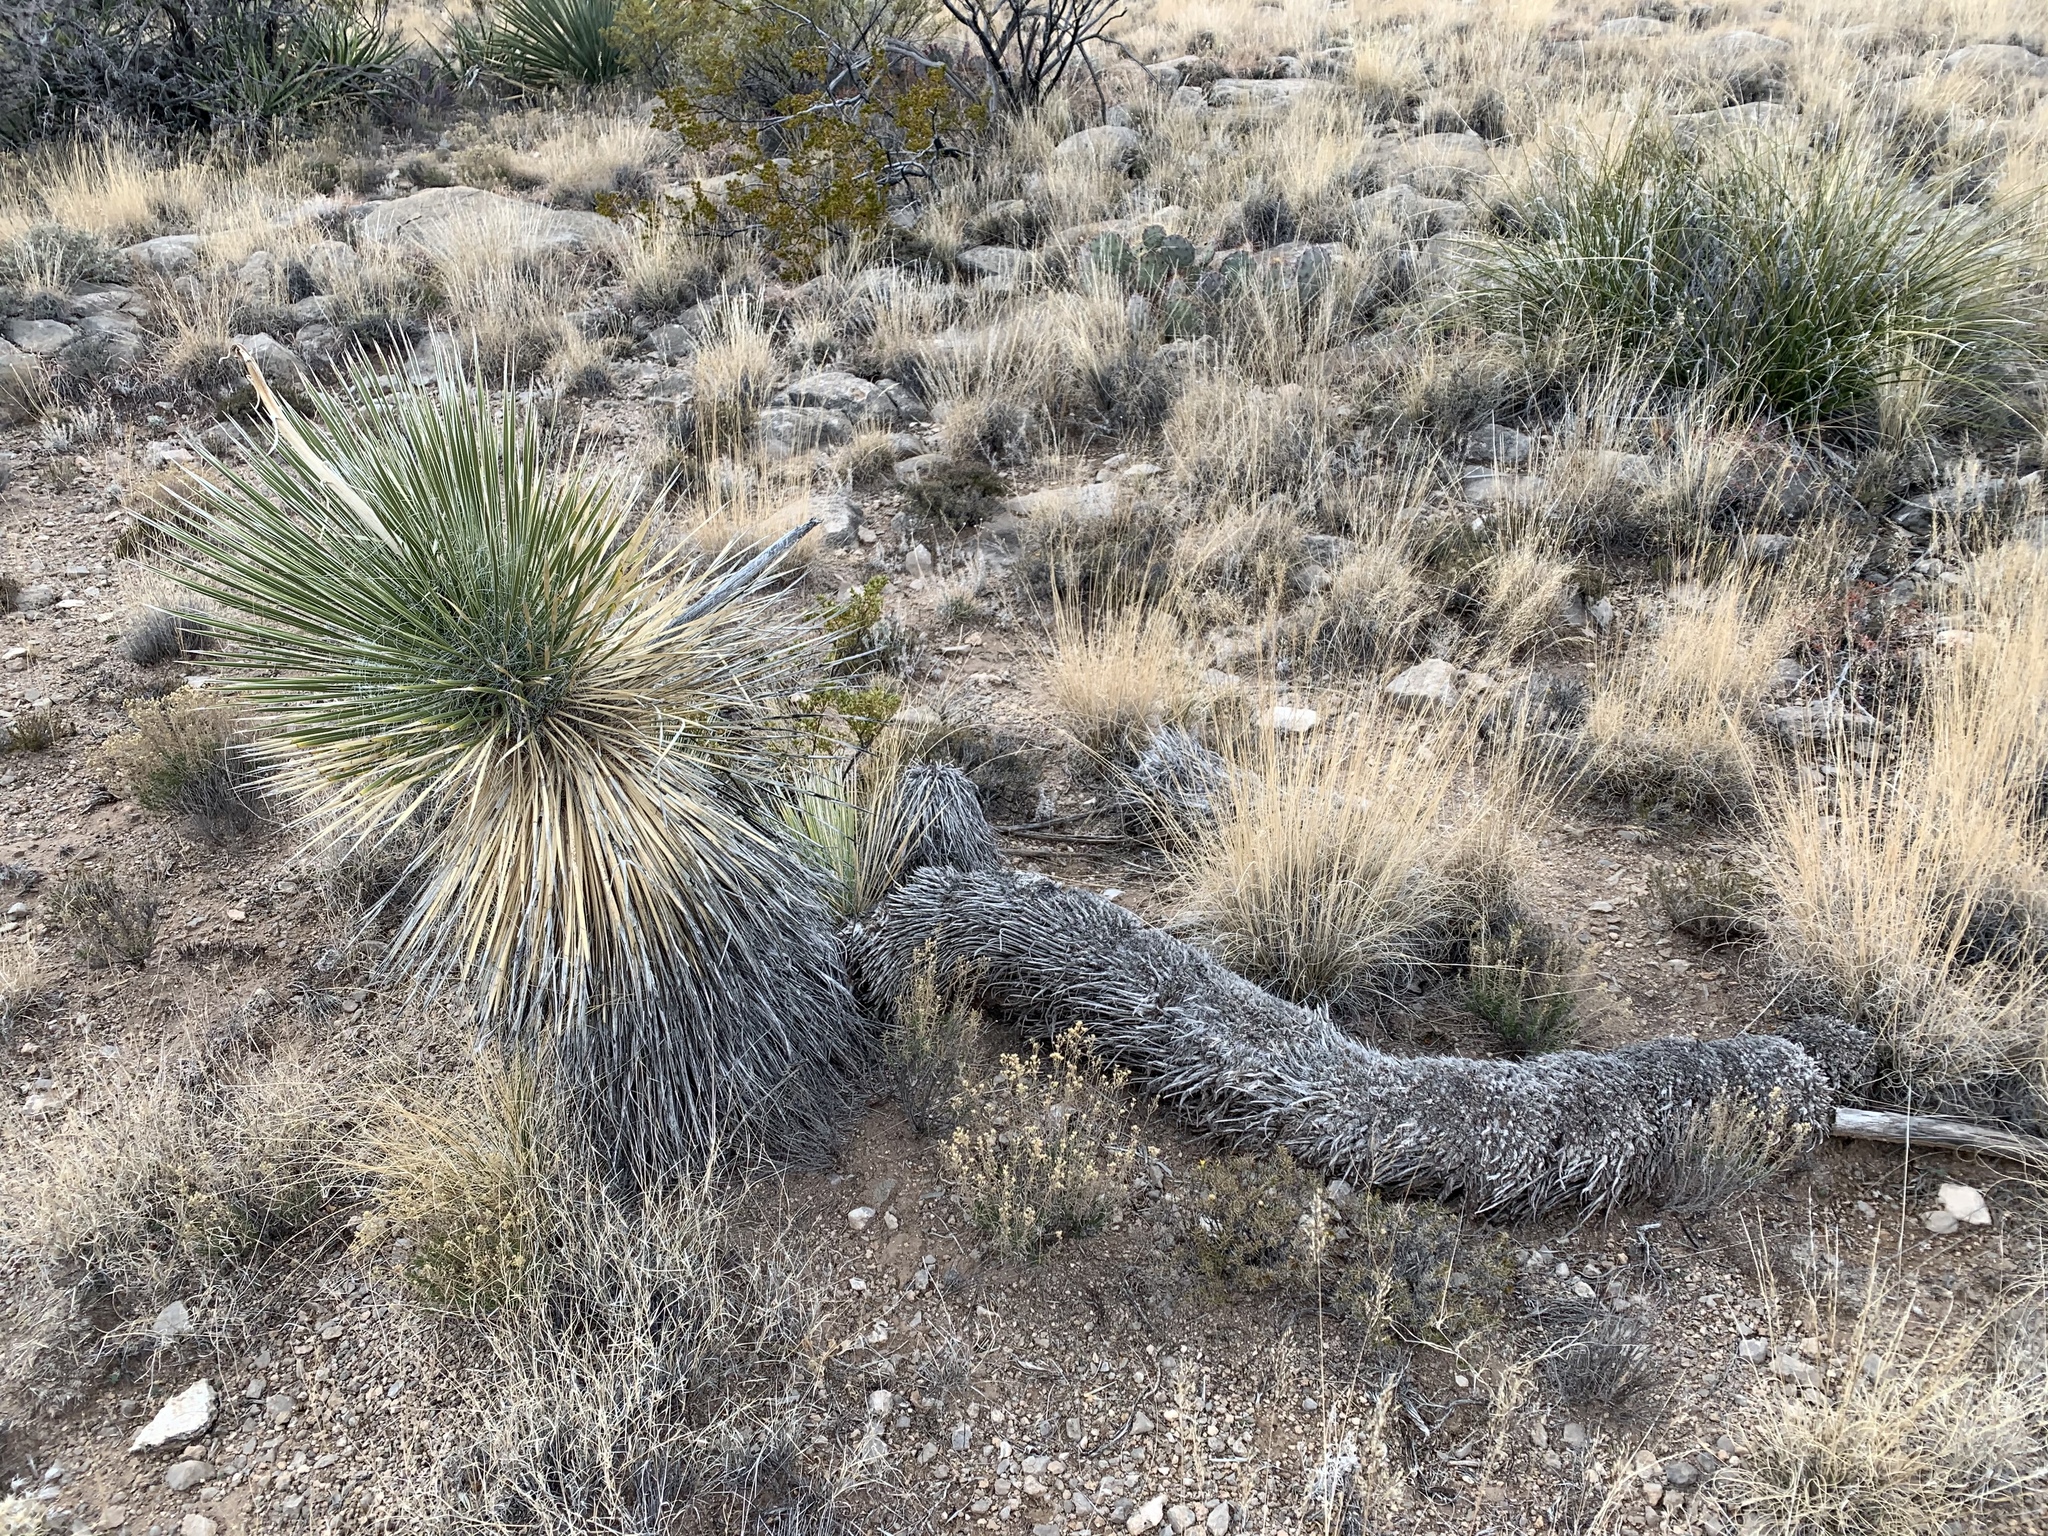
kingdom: Plantae
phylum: Tracheophyta
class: Liliopsida
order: Asparagales
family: Asparagaceae
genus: Yucca
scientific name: Yucca elata
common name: Palmella
